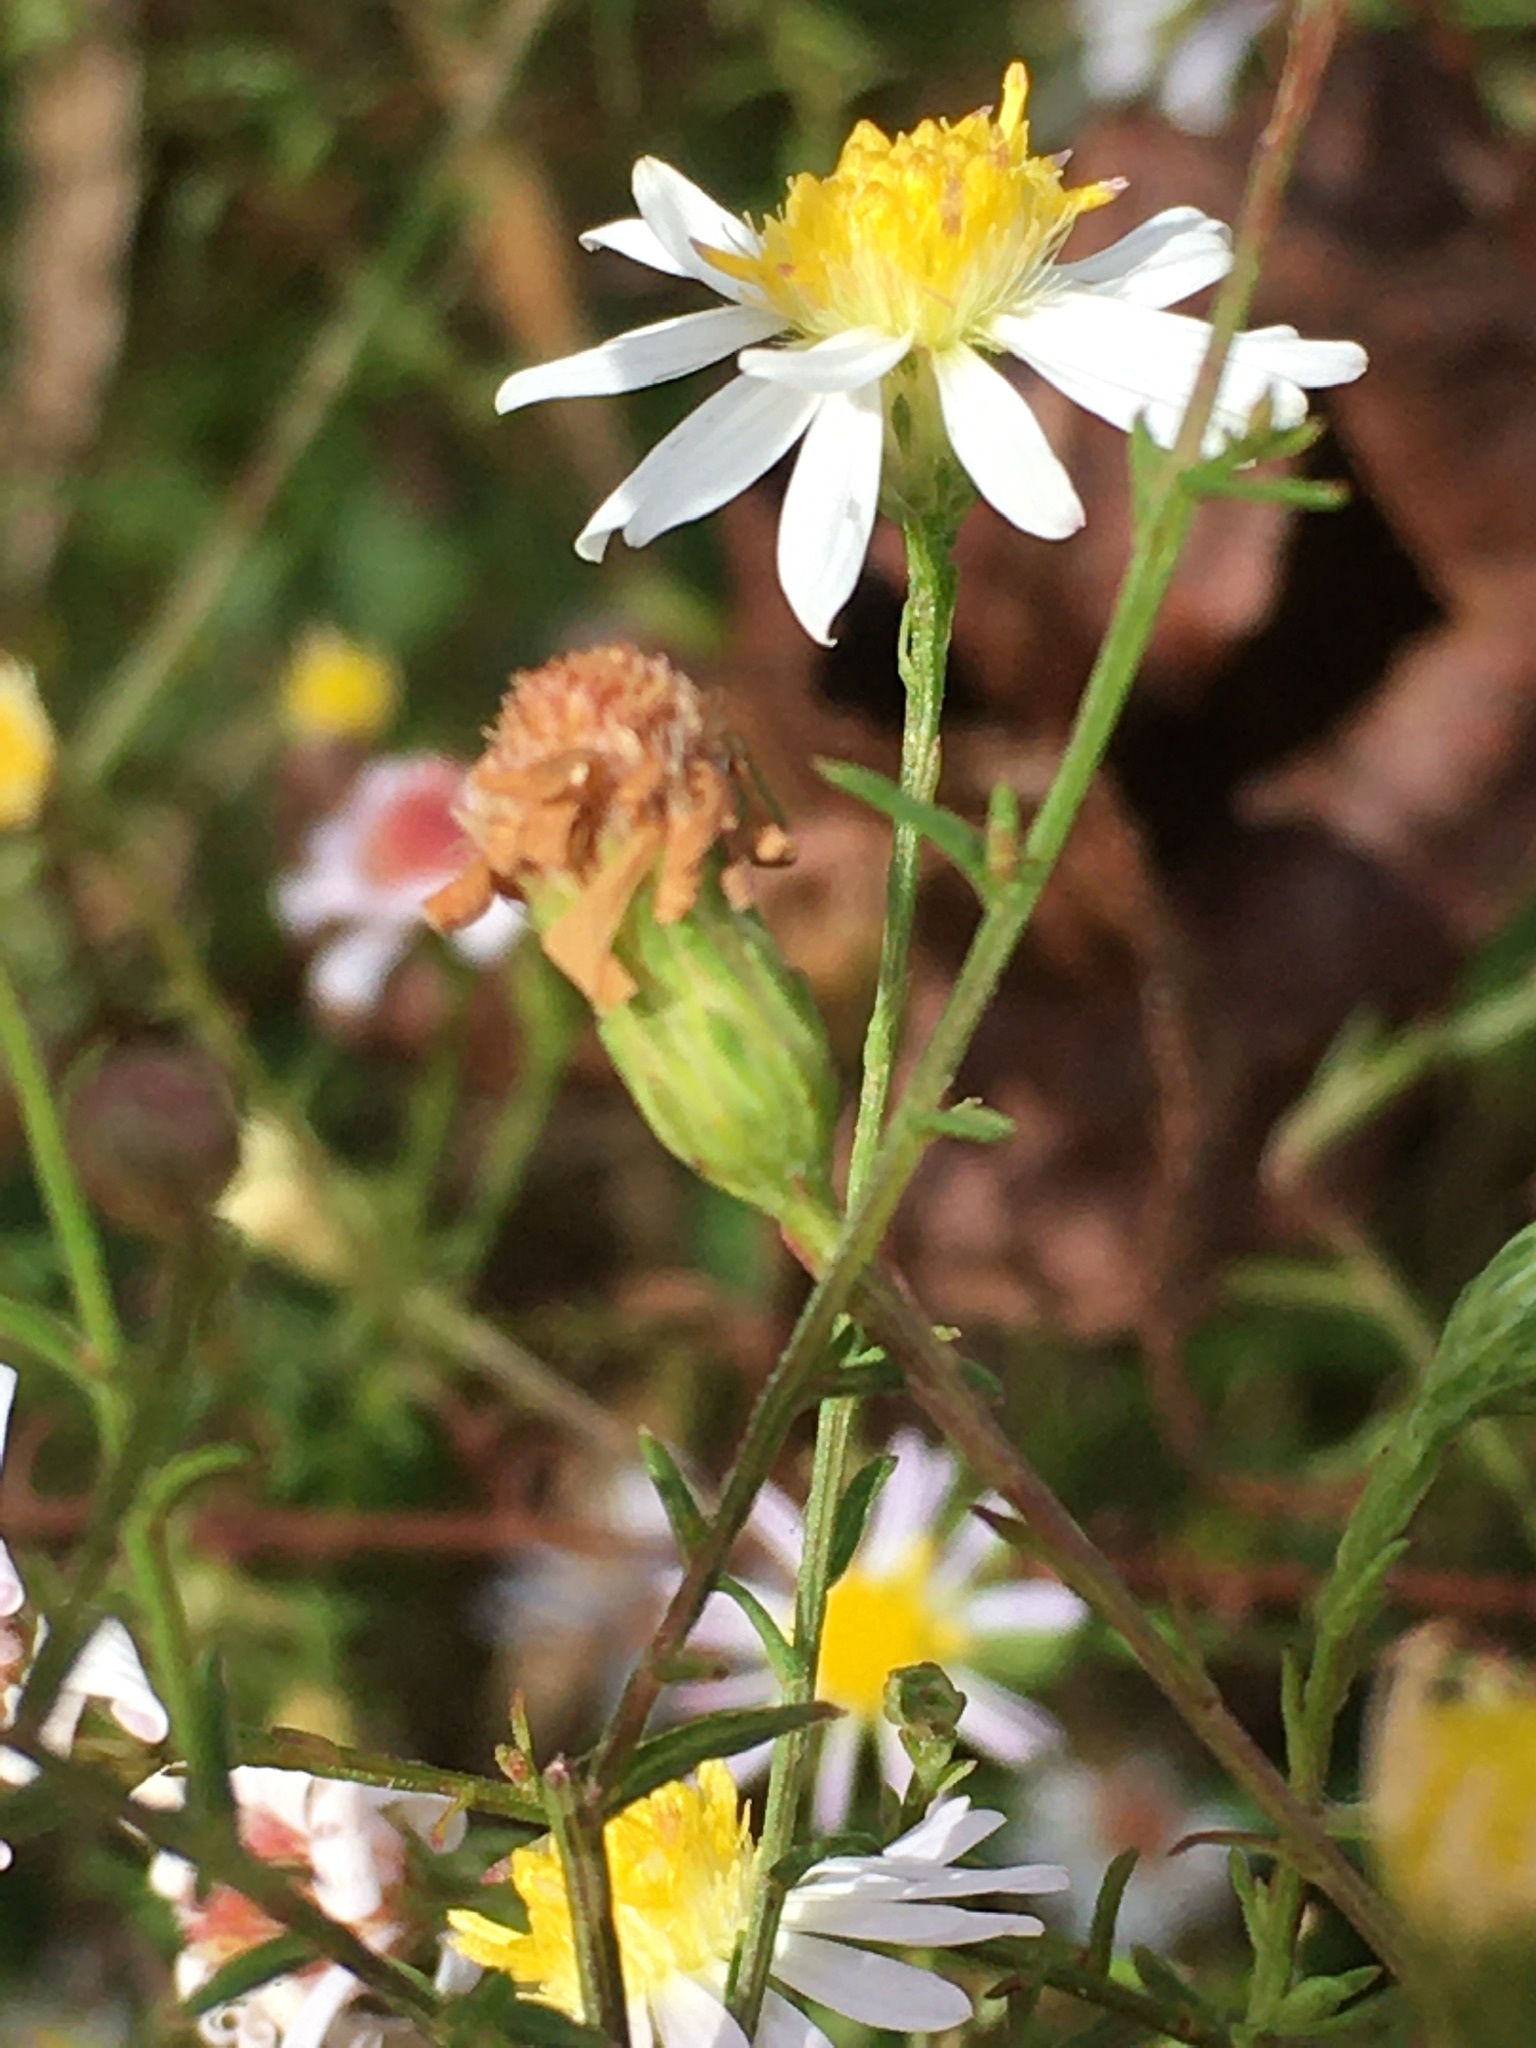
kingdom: Plantae
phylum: Tracheophyta
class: Magnoliopsida
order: Asterales
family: Asteraceae
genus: Symphyotrichum
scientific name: Symphyotrichum racemosum
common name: Small white aster
